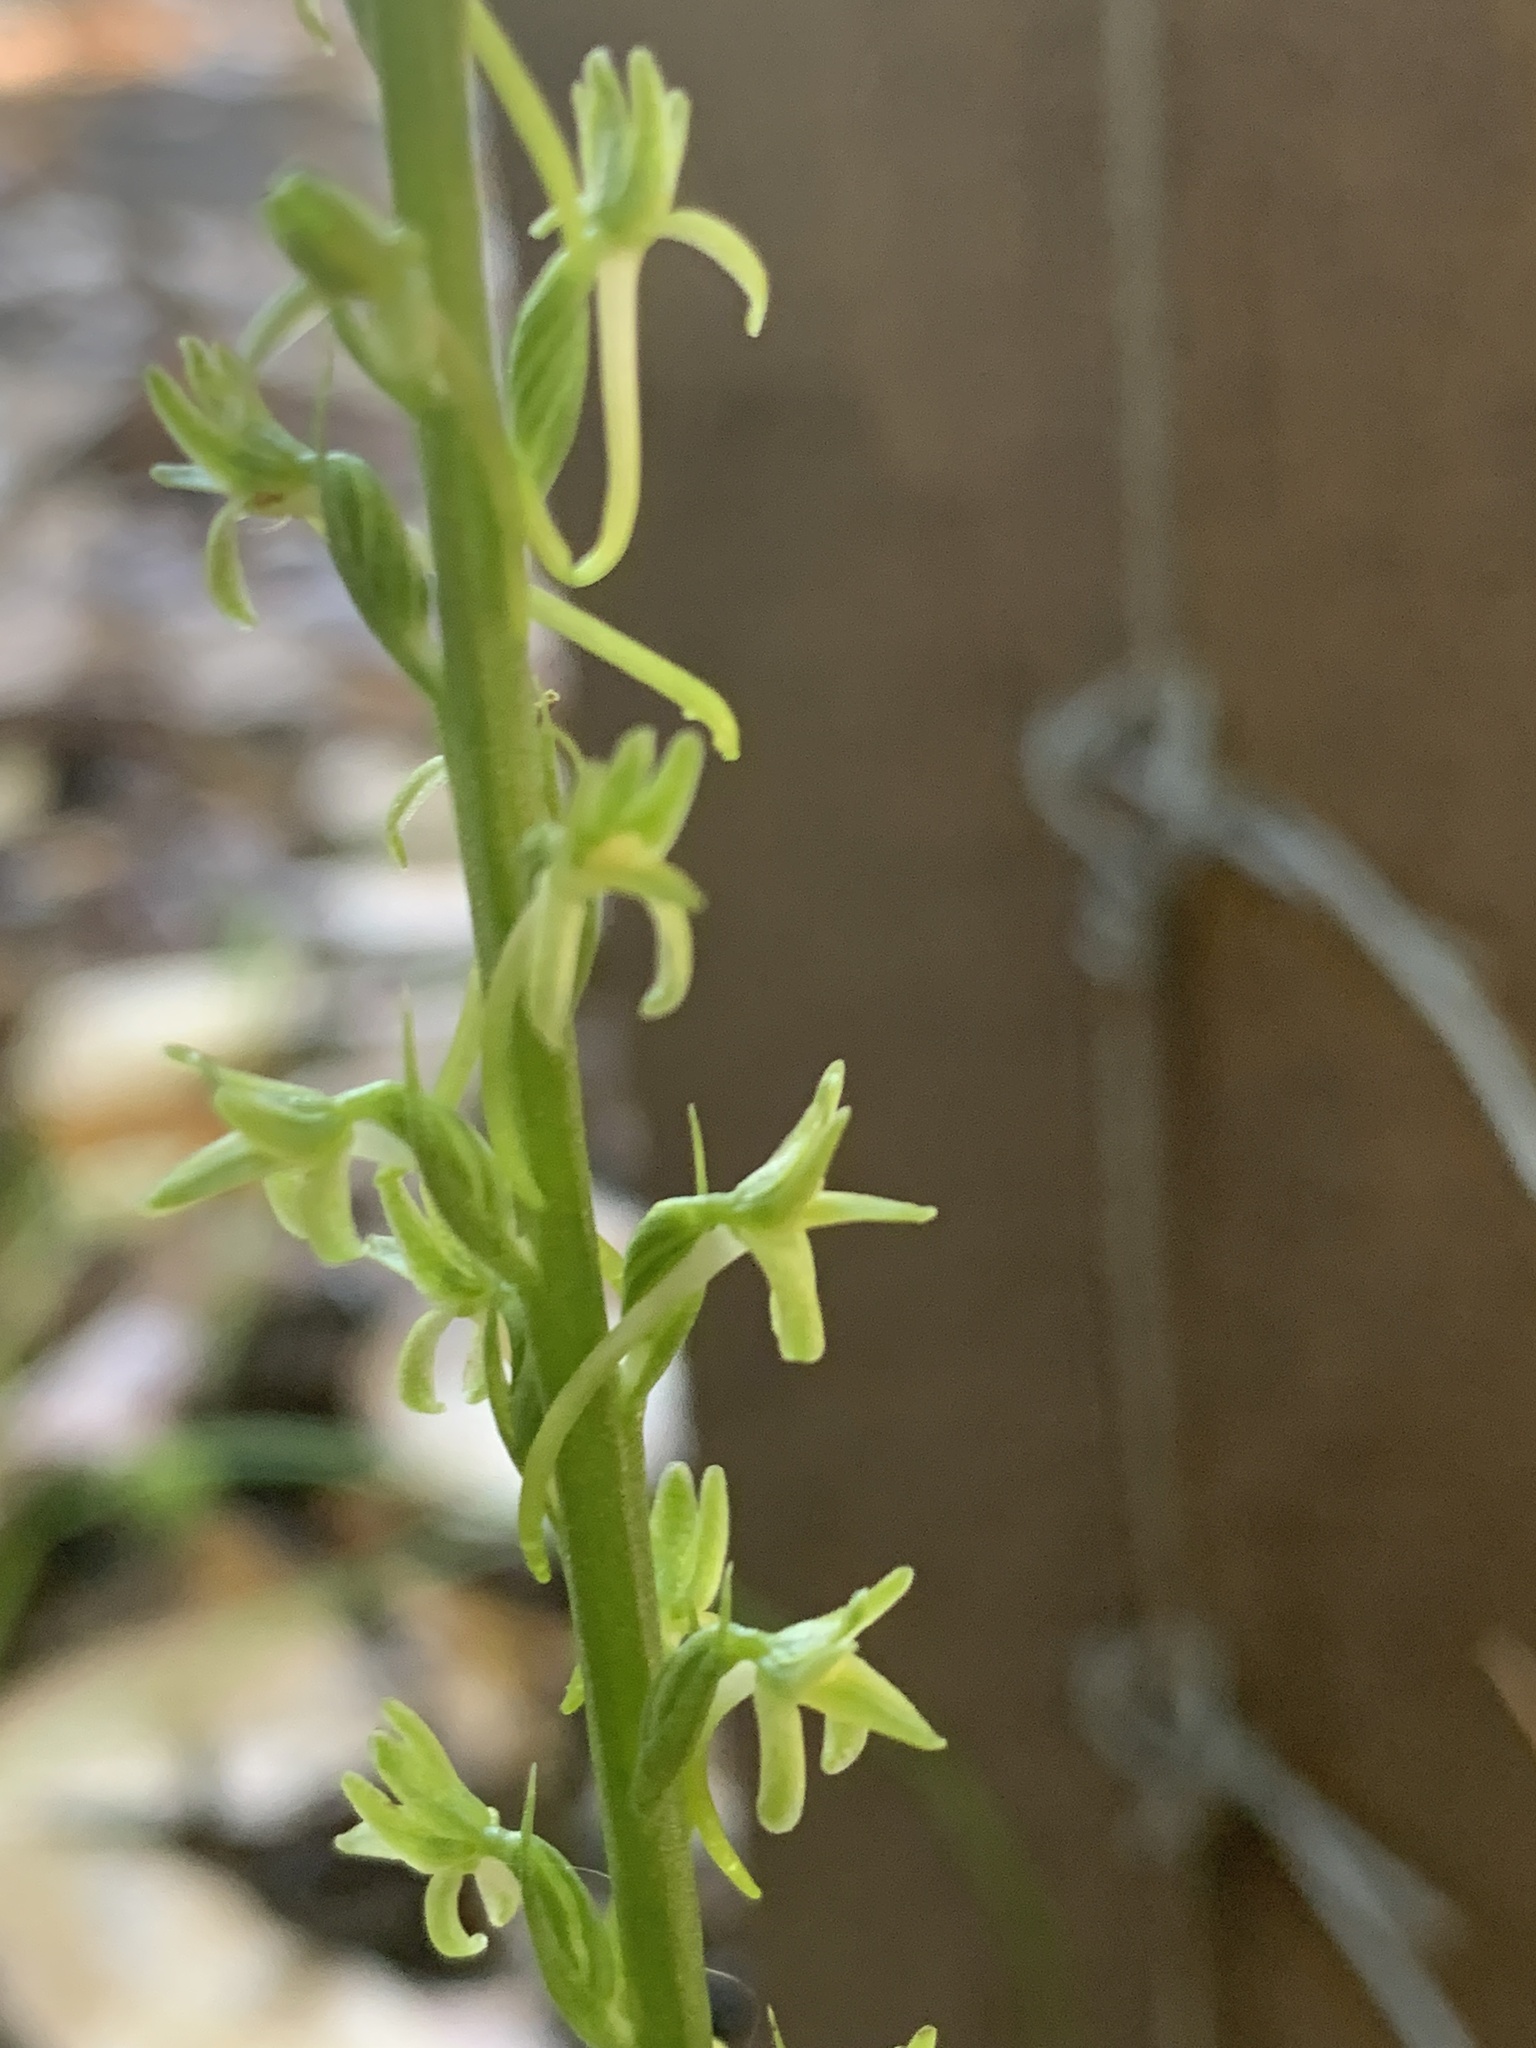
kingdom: Plantae
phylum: Tracheophyta
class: Liliopsida
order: Asparagales
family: Orchidaceae
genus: Platanthera
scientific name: Platanthera elongata
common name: Dense-flowered rein orchid
